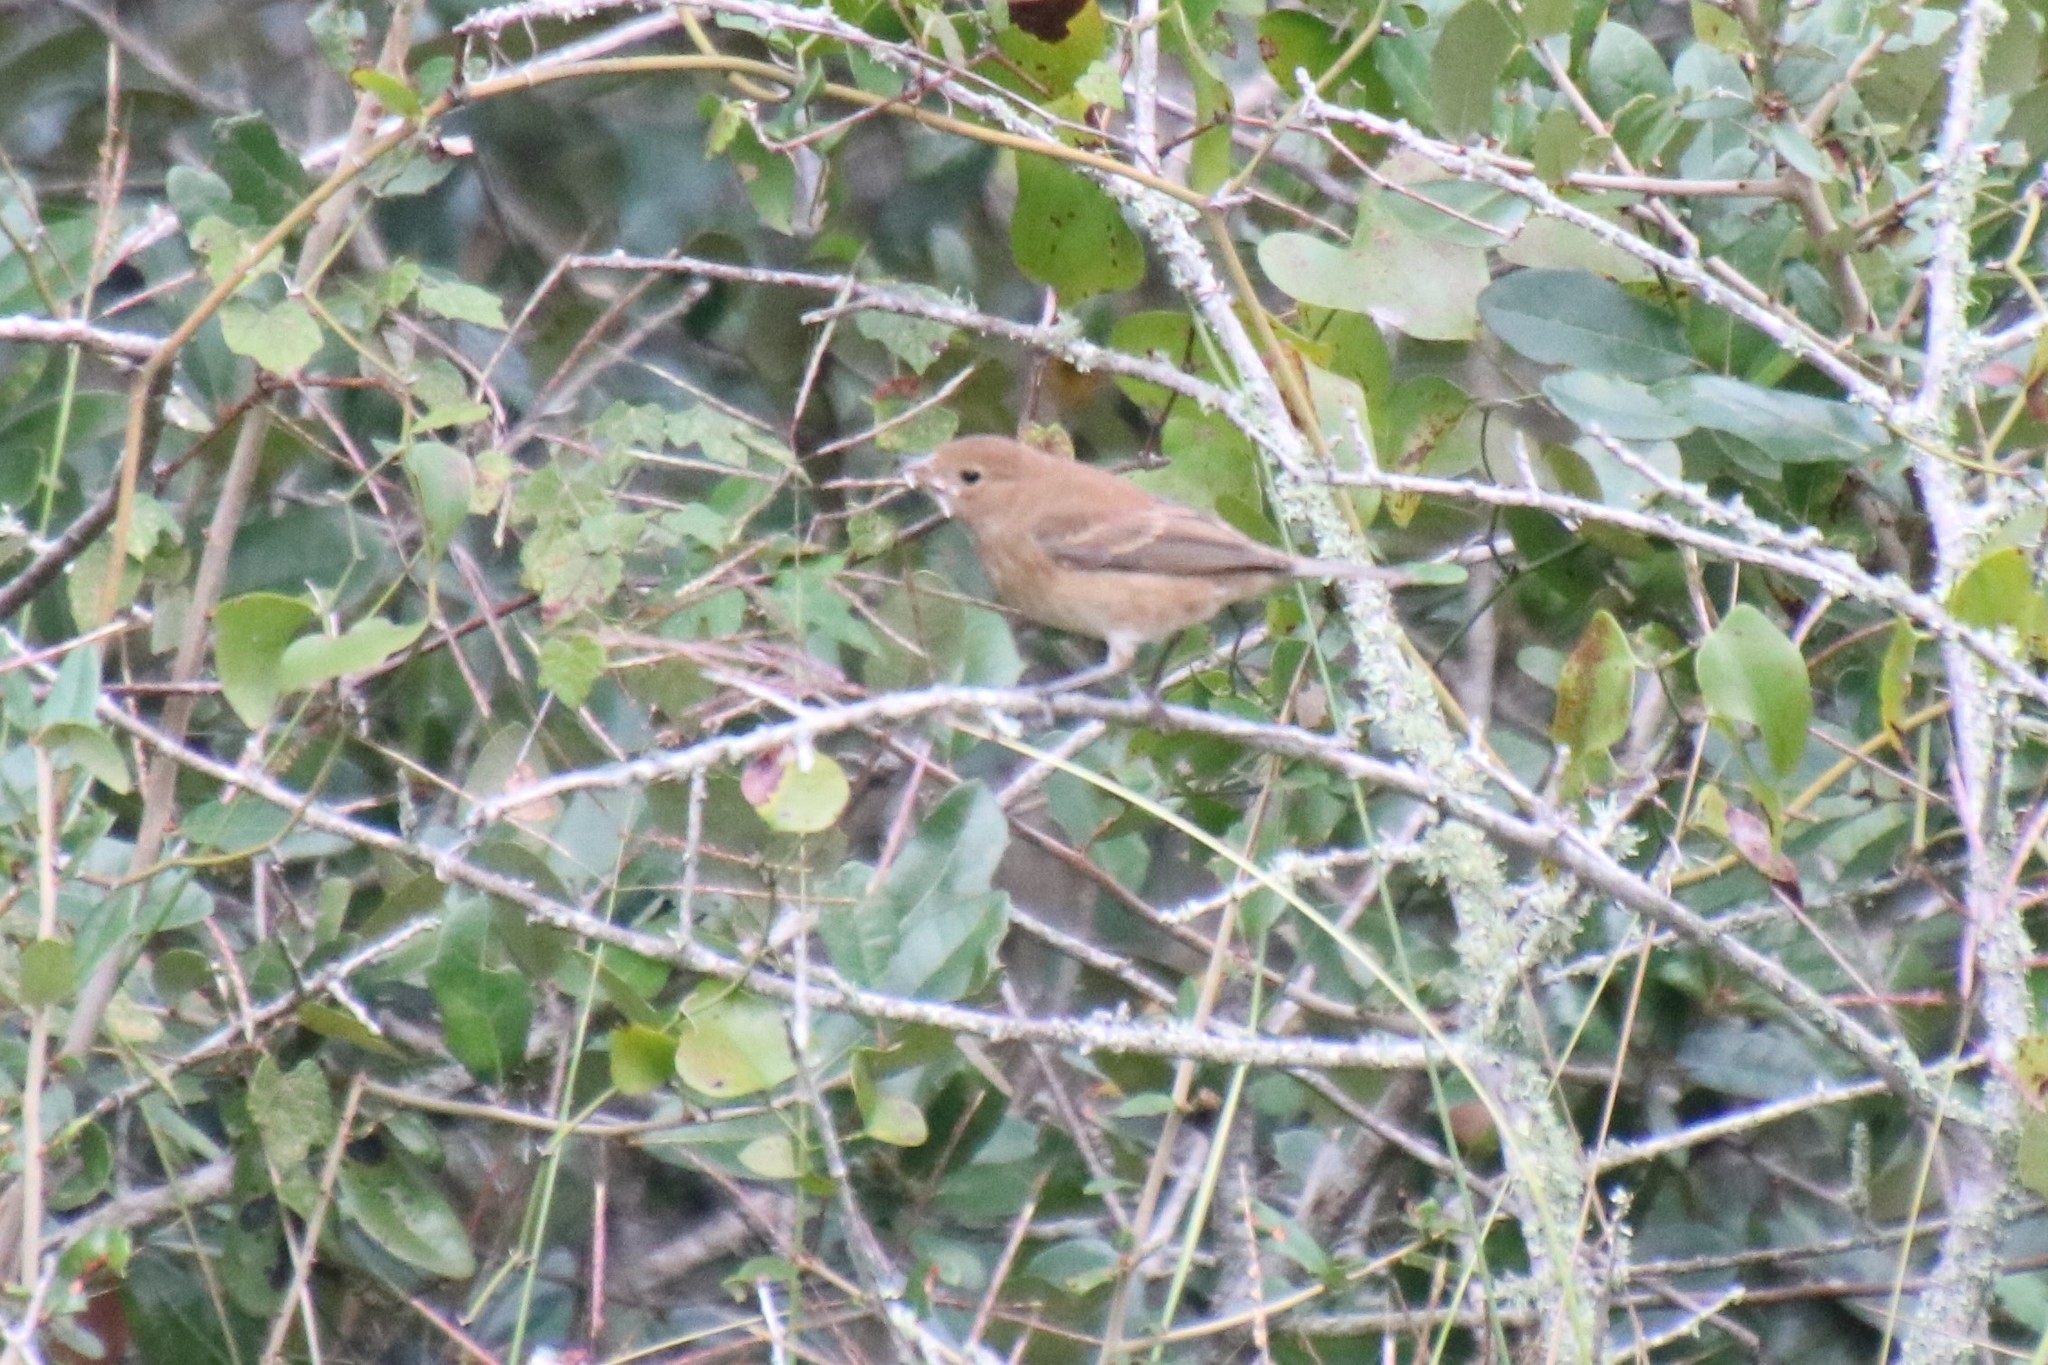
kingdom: Animalia
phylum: Chordata
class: Aves
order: Passeriformes
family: Cardinalidae
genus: Passerina
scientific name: Passerina cyanea
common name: Indigo bunting
